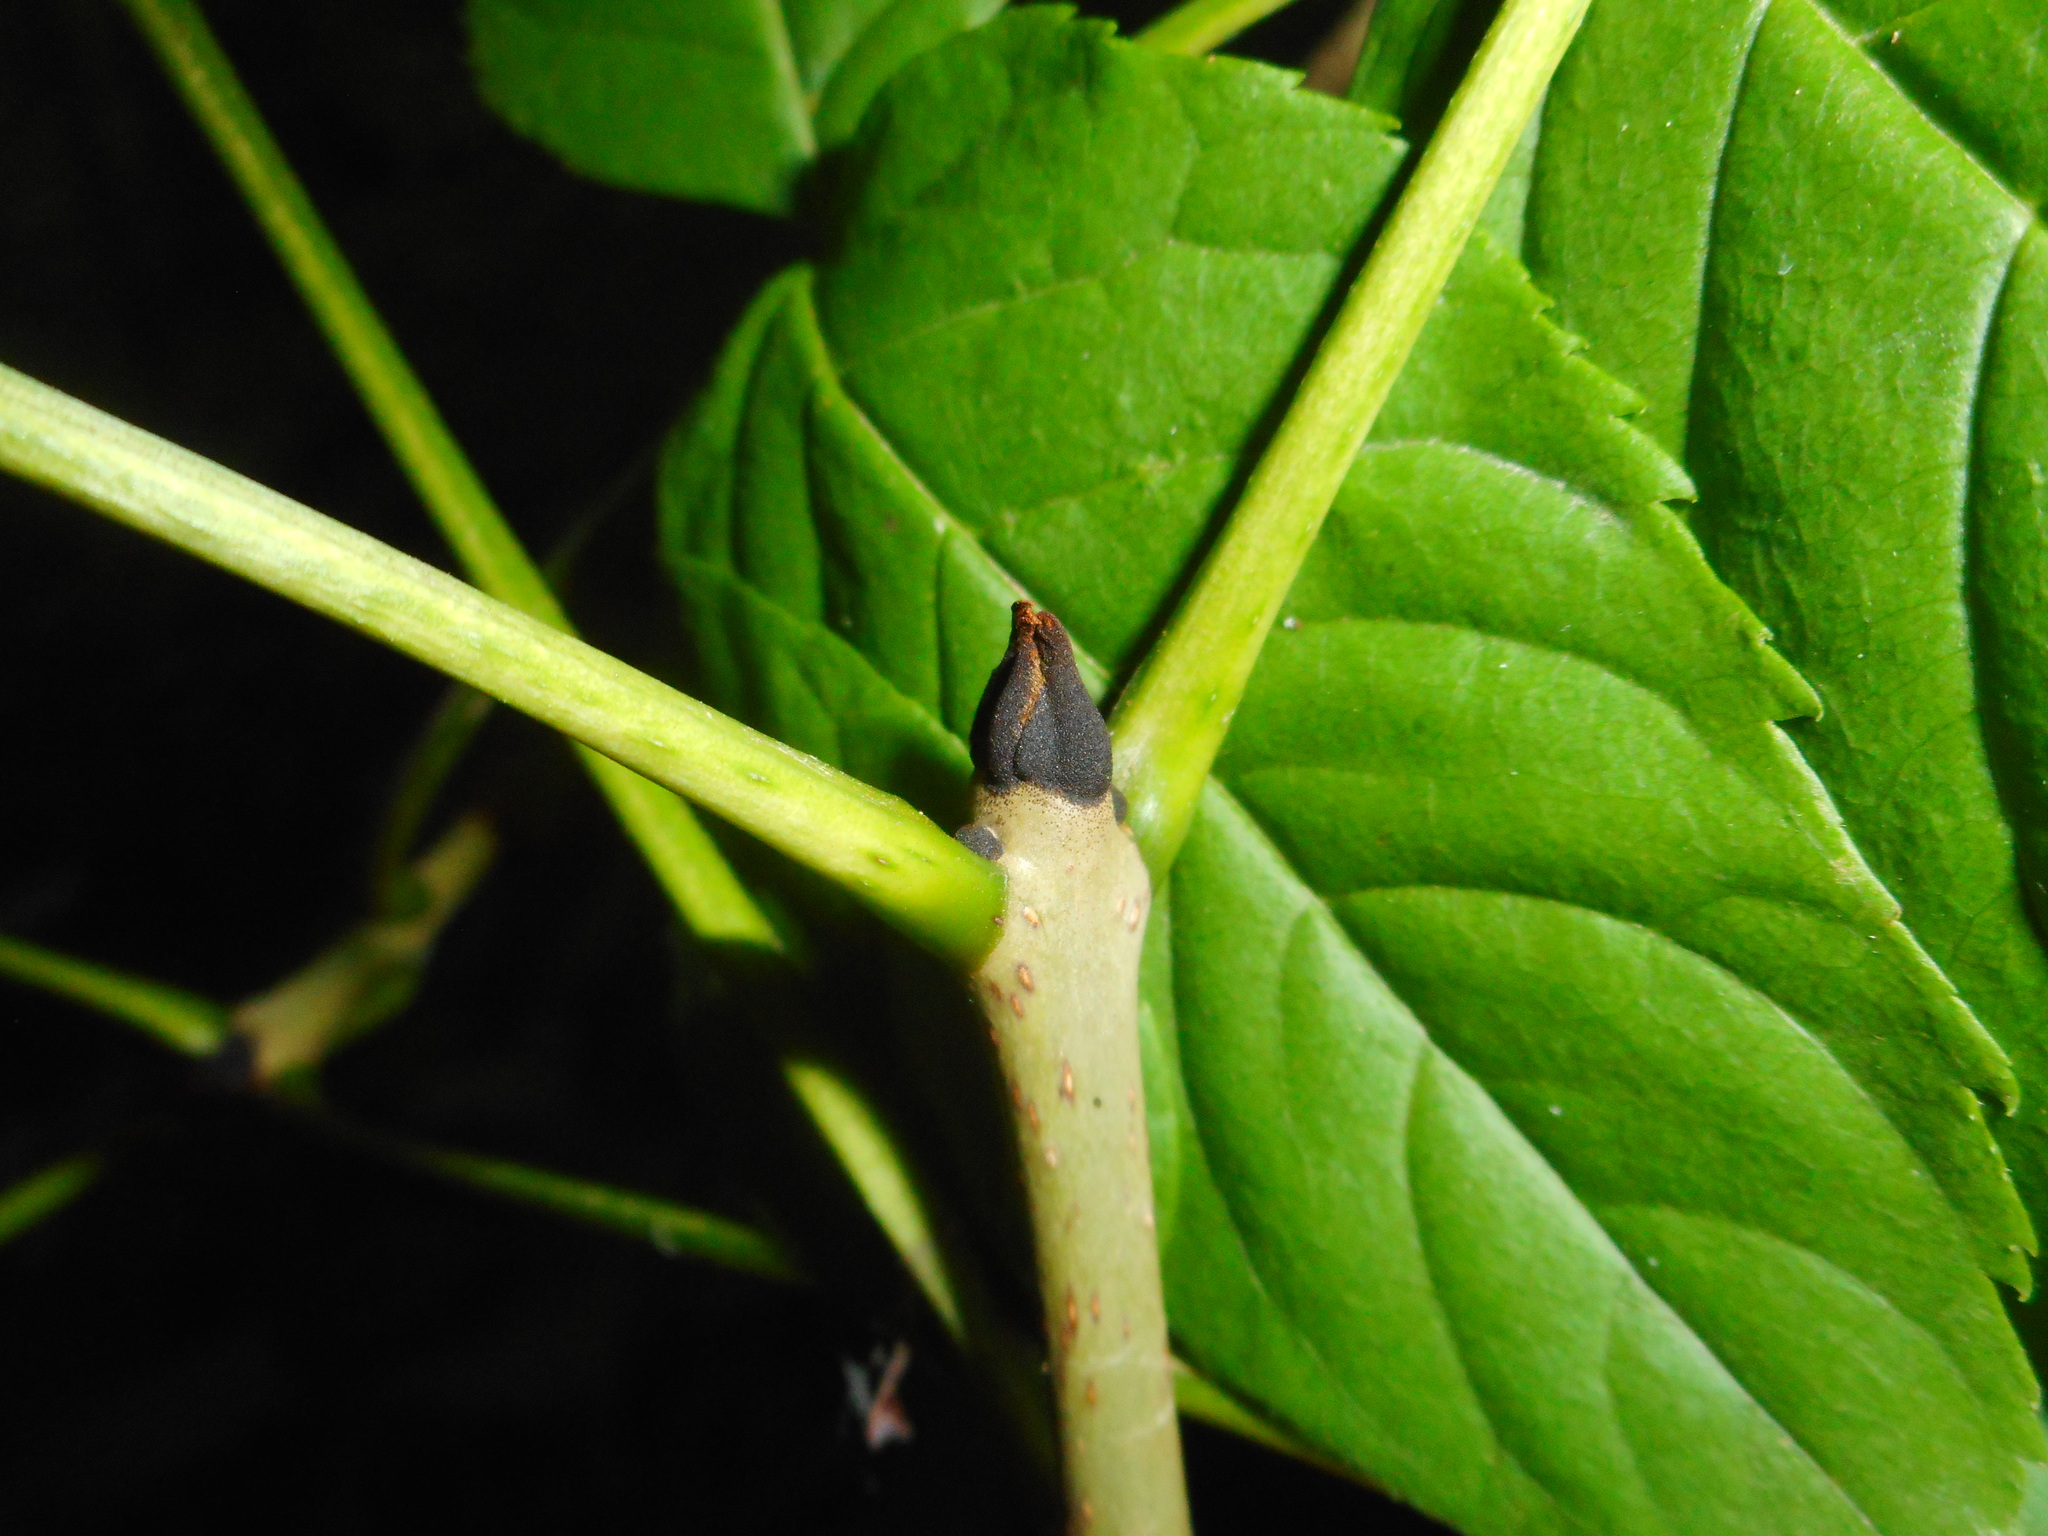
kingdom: Plantae
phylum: Tracheophyta
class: Magnoliopsida
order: Lamiales
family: Oleaceae
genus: Fraxinus
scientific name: Fraxinus excelsior
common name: European ash
